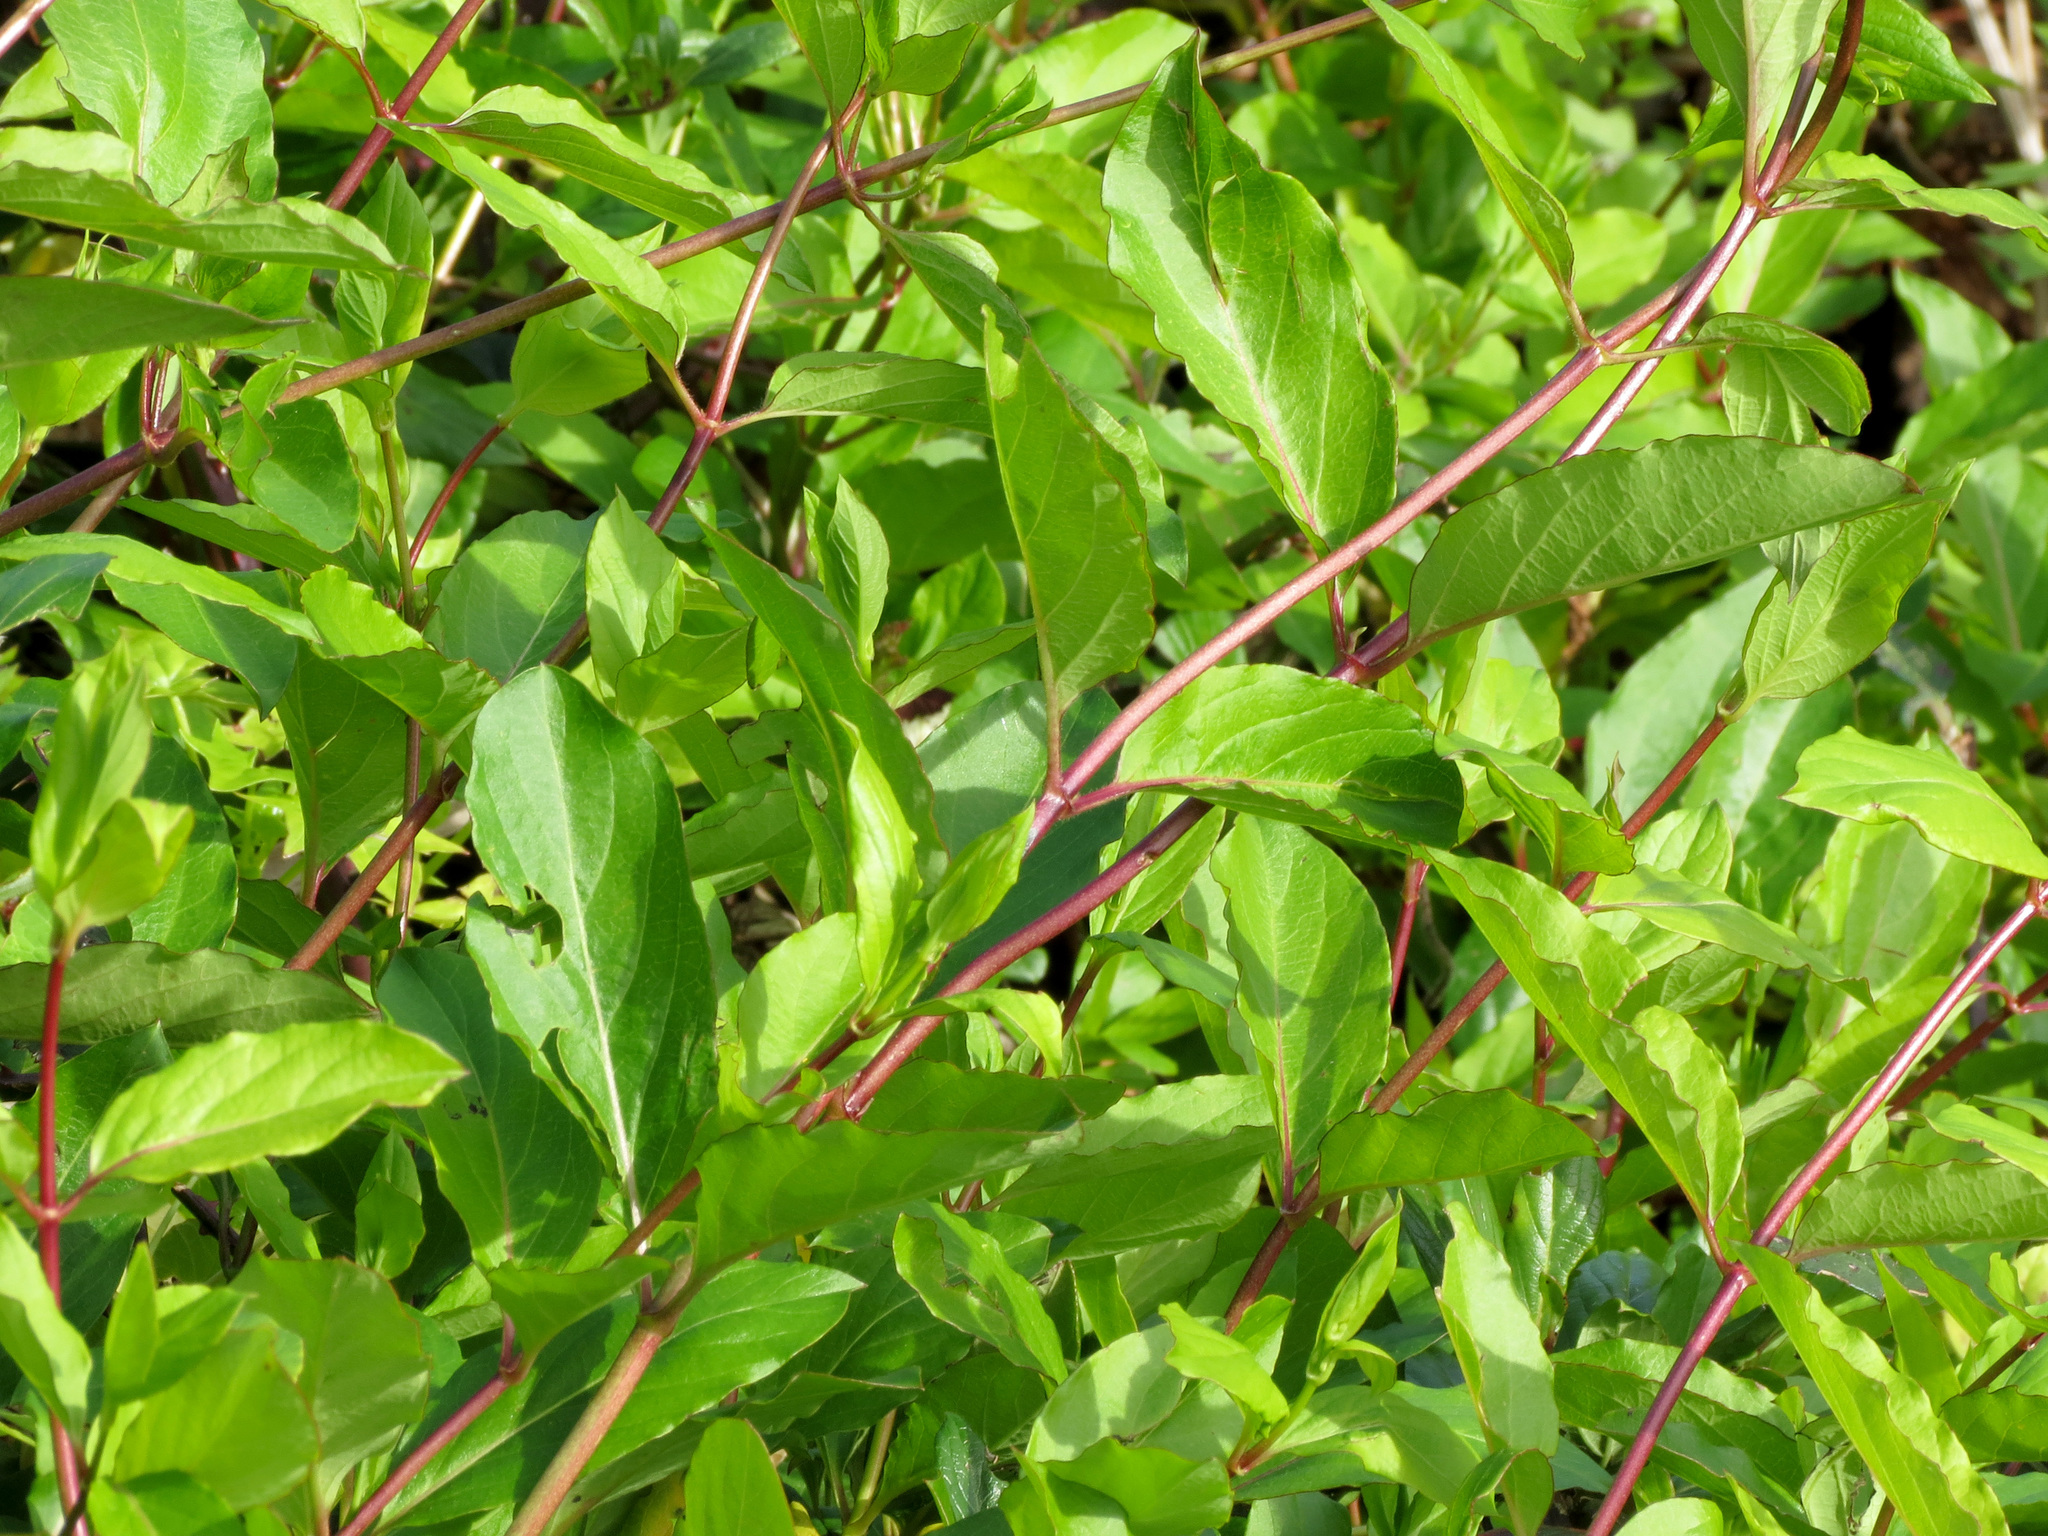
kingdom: Plantae
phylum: Tracheophyta
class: Magnoliopsida
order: Dipsacales
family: Caprifoliaceae
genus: Lonicera
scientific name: Lonicera japonica
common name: Japanese honeysuckle
